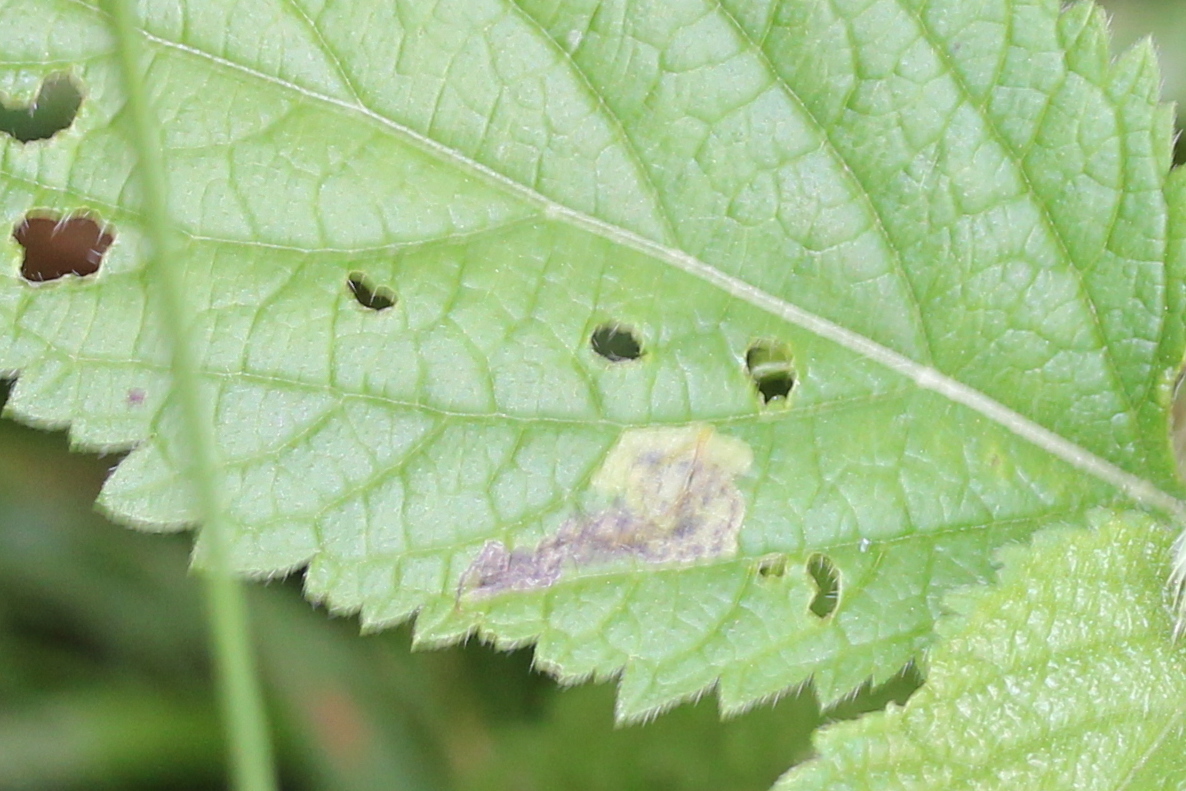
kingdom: Animalia
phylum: Arthropoda
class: Insecta
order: Diptera
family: Agromyzidae
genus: Calycomyza
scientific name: Calycomyza verbenae
